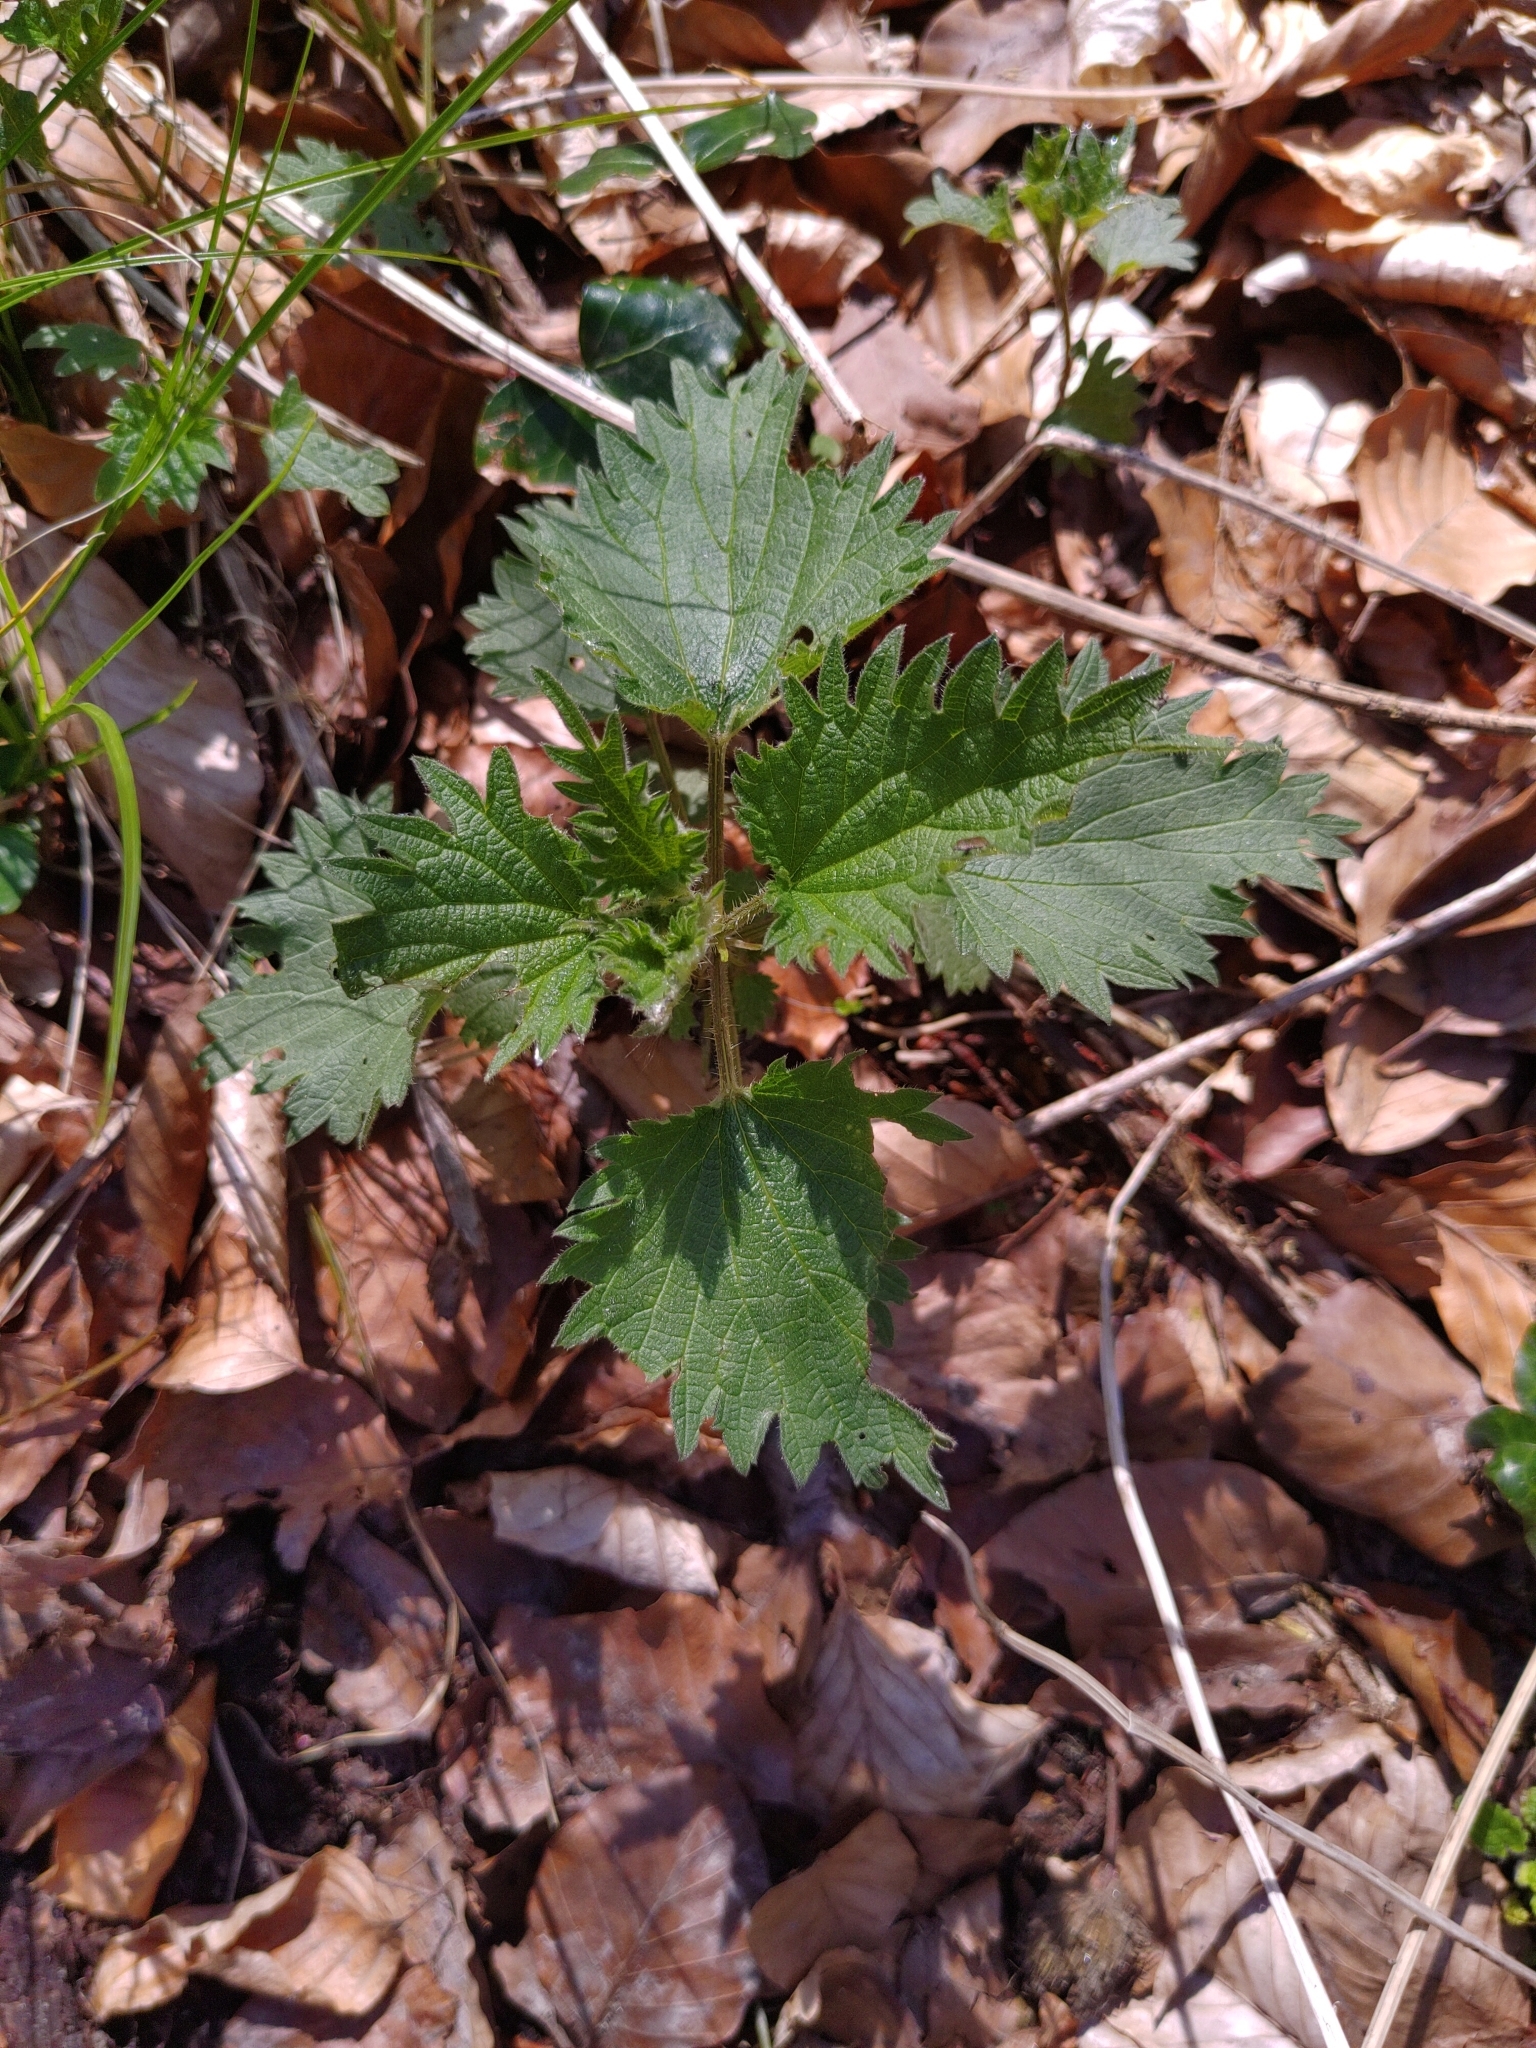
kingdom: Plantae
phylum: Tracheophyta
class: Magnoliopsida
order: Rosales
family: Urticaceae
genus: Urtica
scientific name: Urtica dioica
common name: Common nettle
